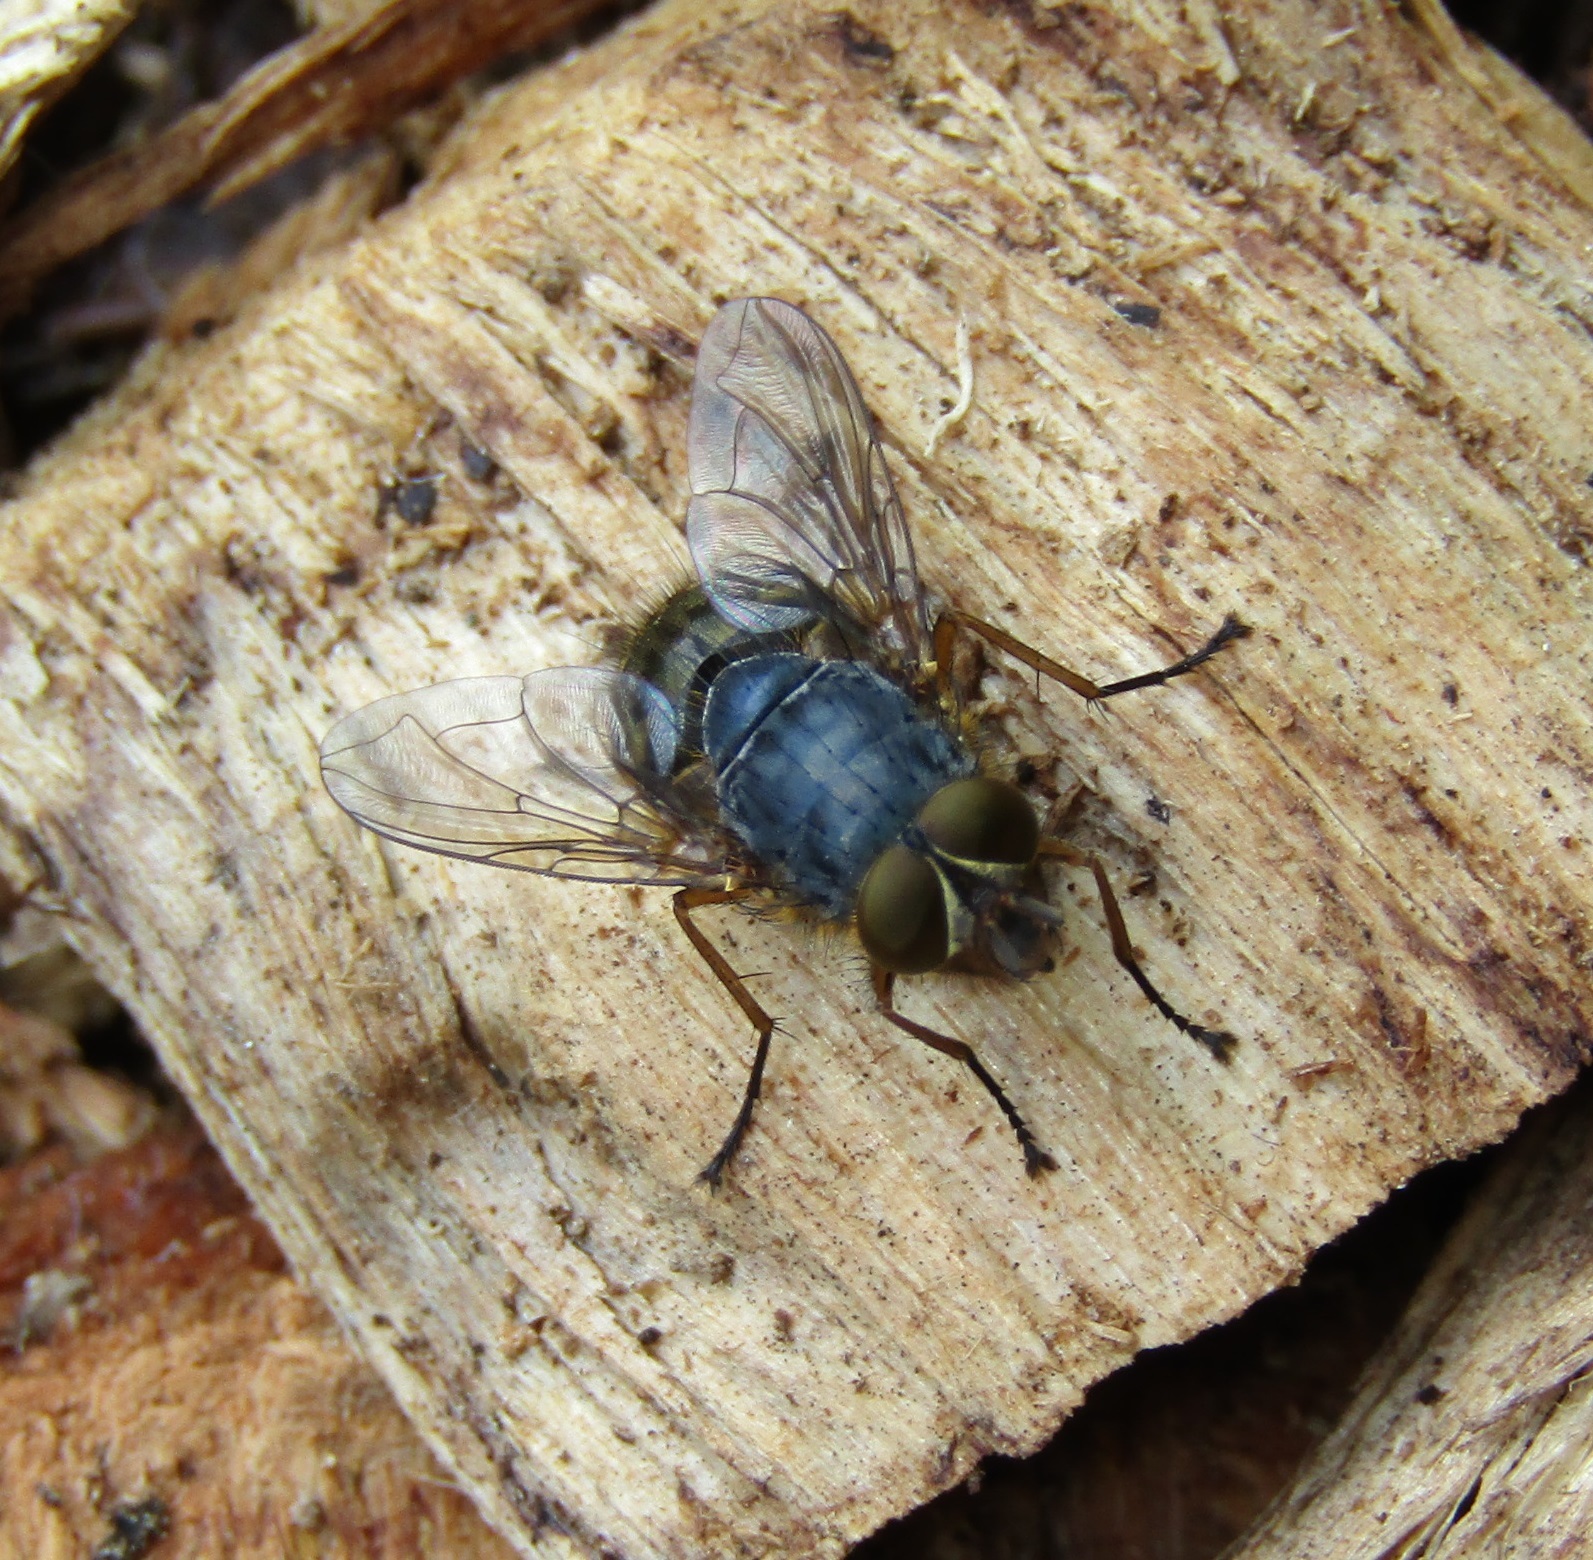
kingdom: Animalia
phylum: Arthropoda
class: Insecta
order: Diptera
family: Calliphoridae
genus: Calliphora
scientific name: Calliphora hilli
